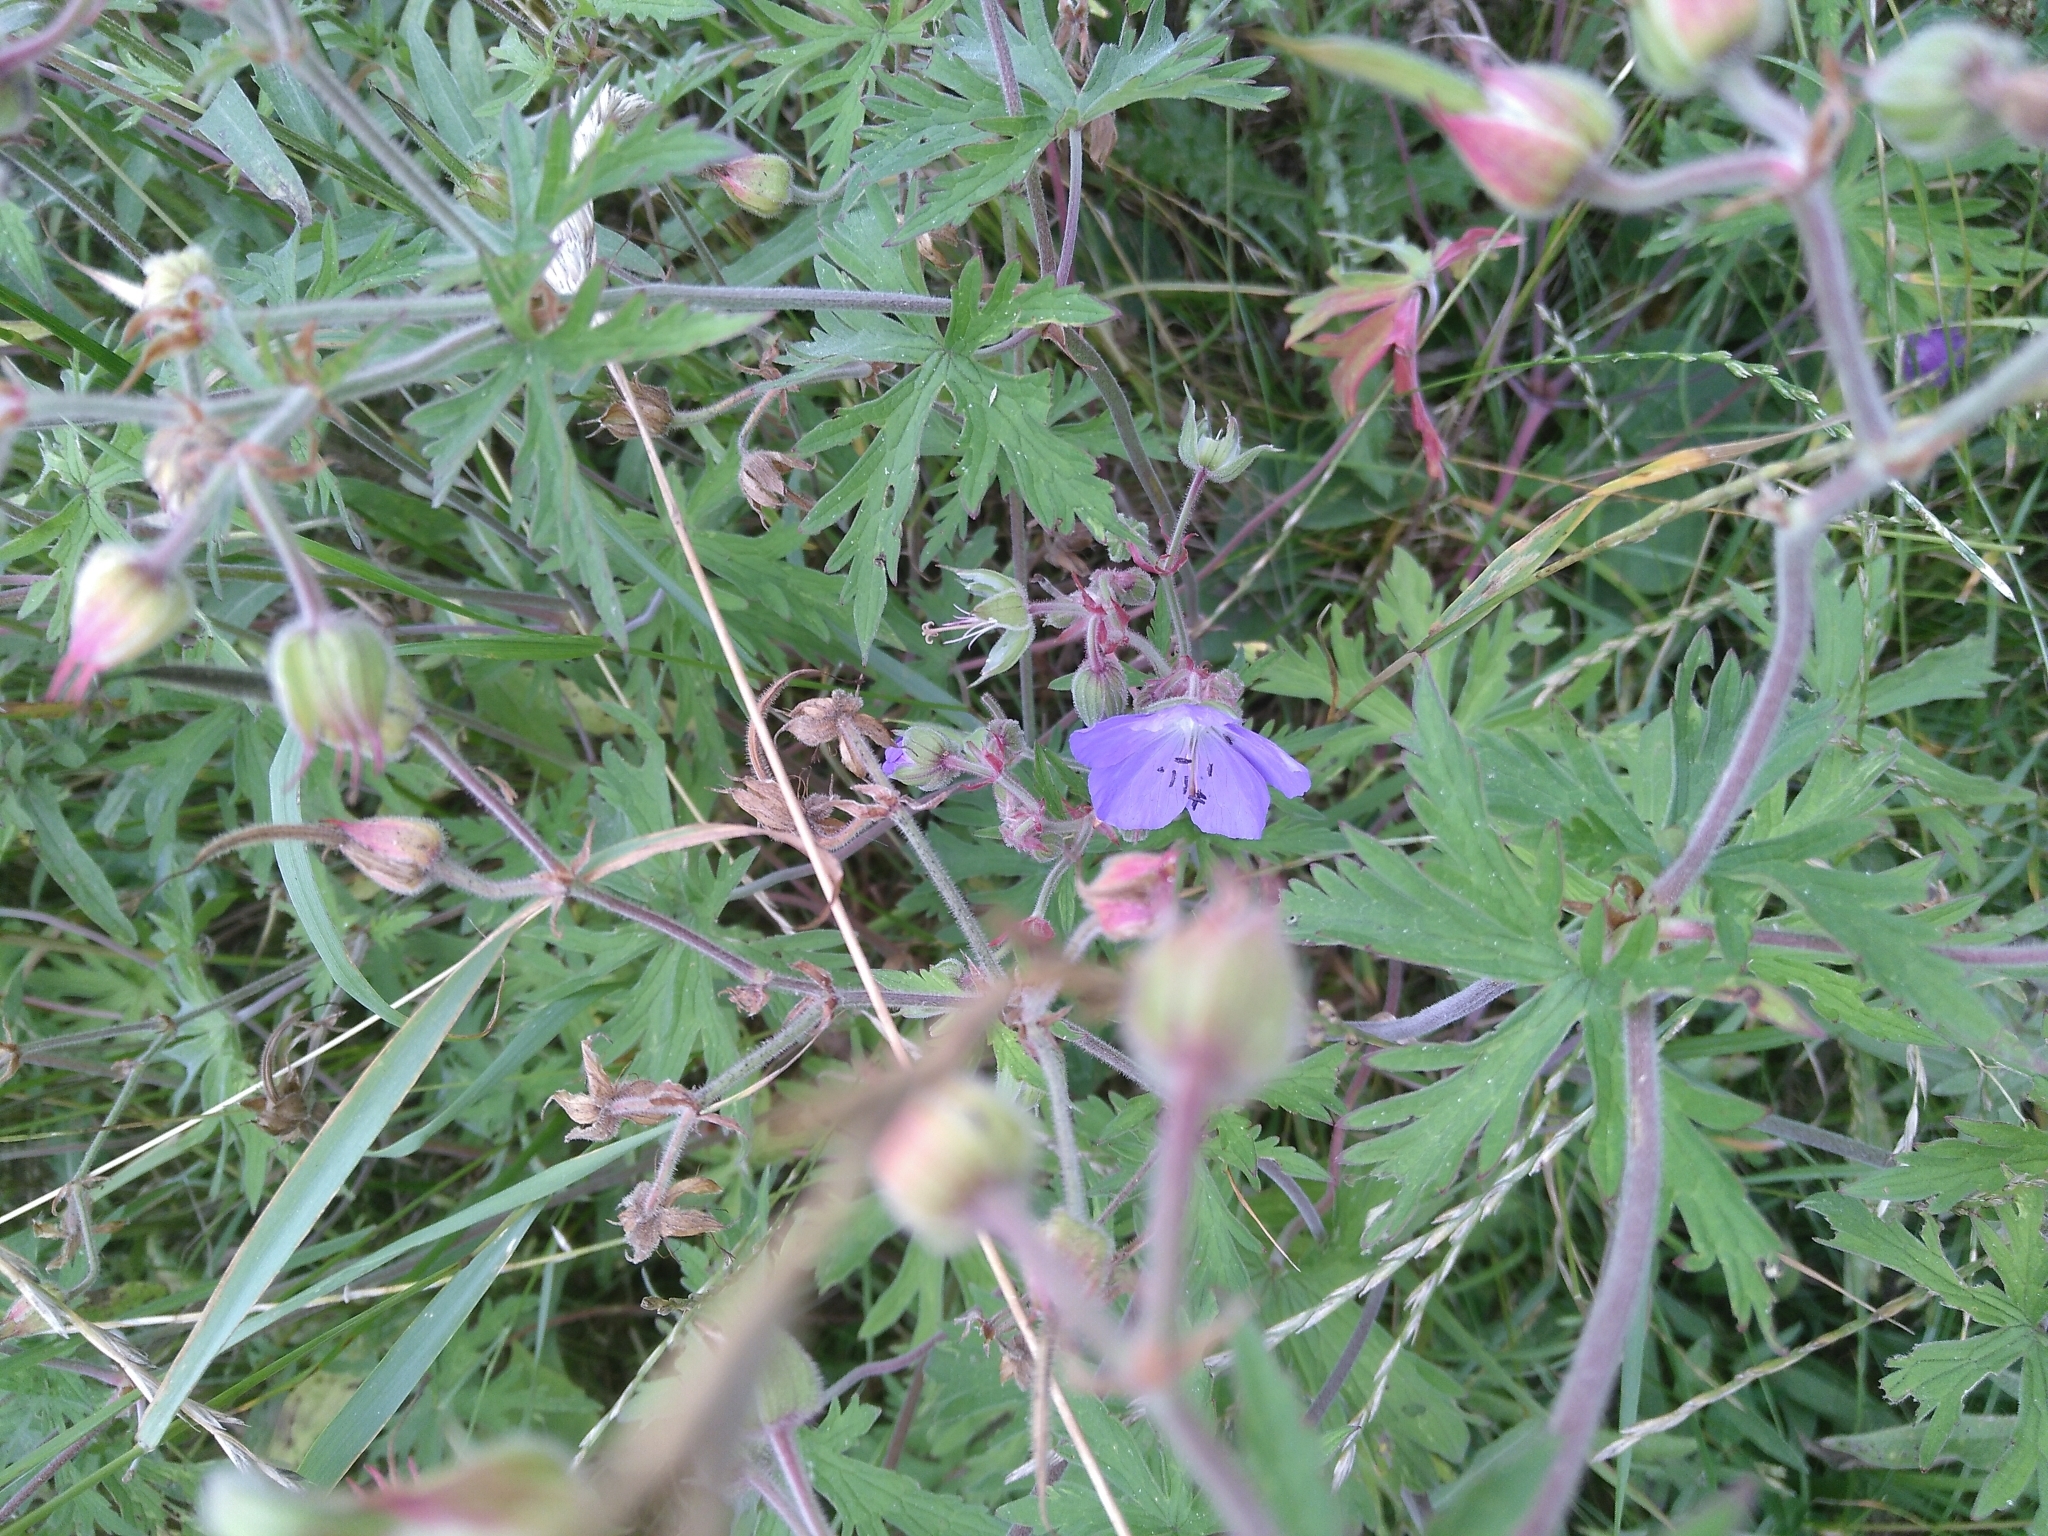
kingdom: Plantae
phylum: Tracheophyta
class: Magnoliopsida
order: Geraniales
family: Geraniaceae
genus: Geranium
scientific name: Geranium pratense
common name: Meadow crane's-bill
